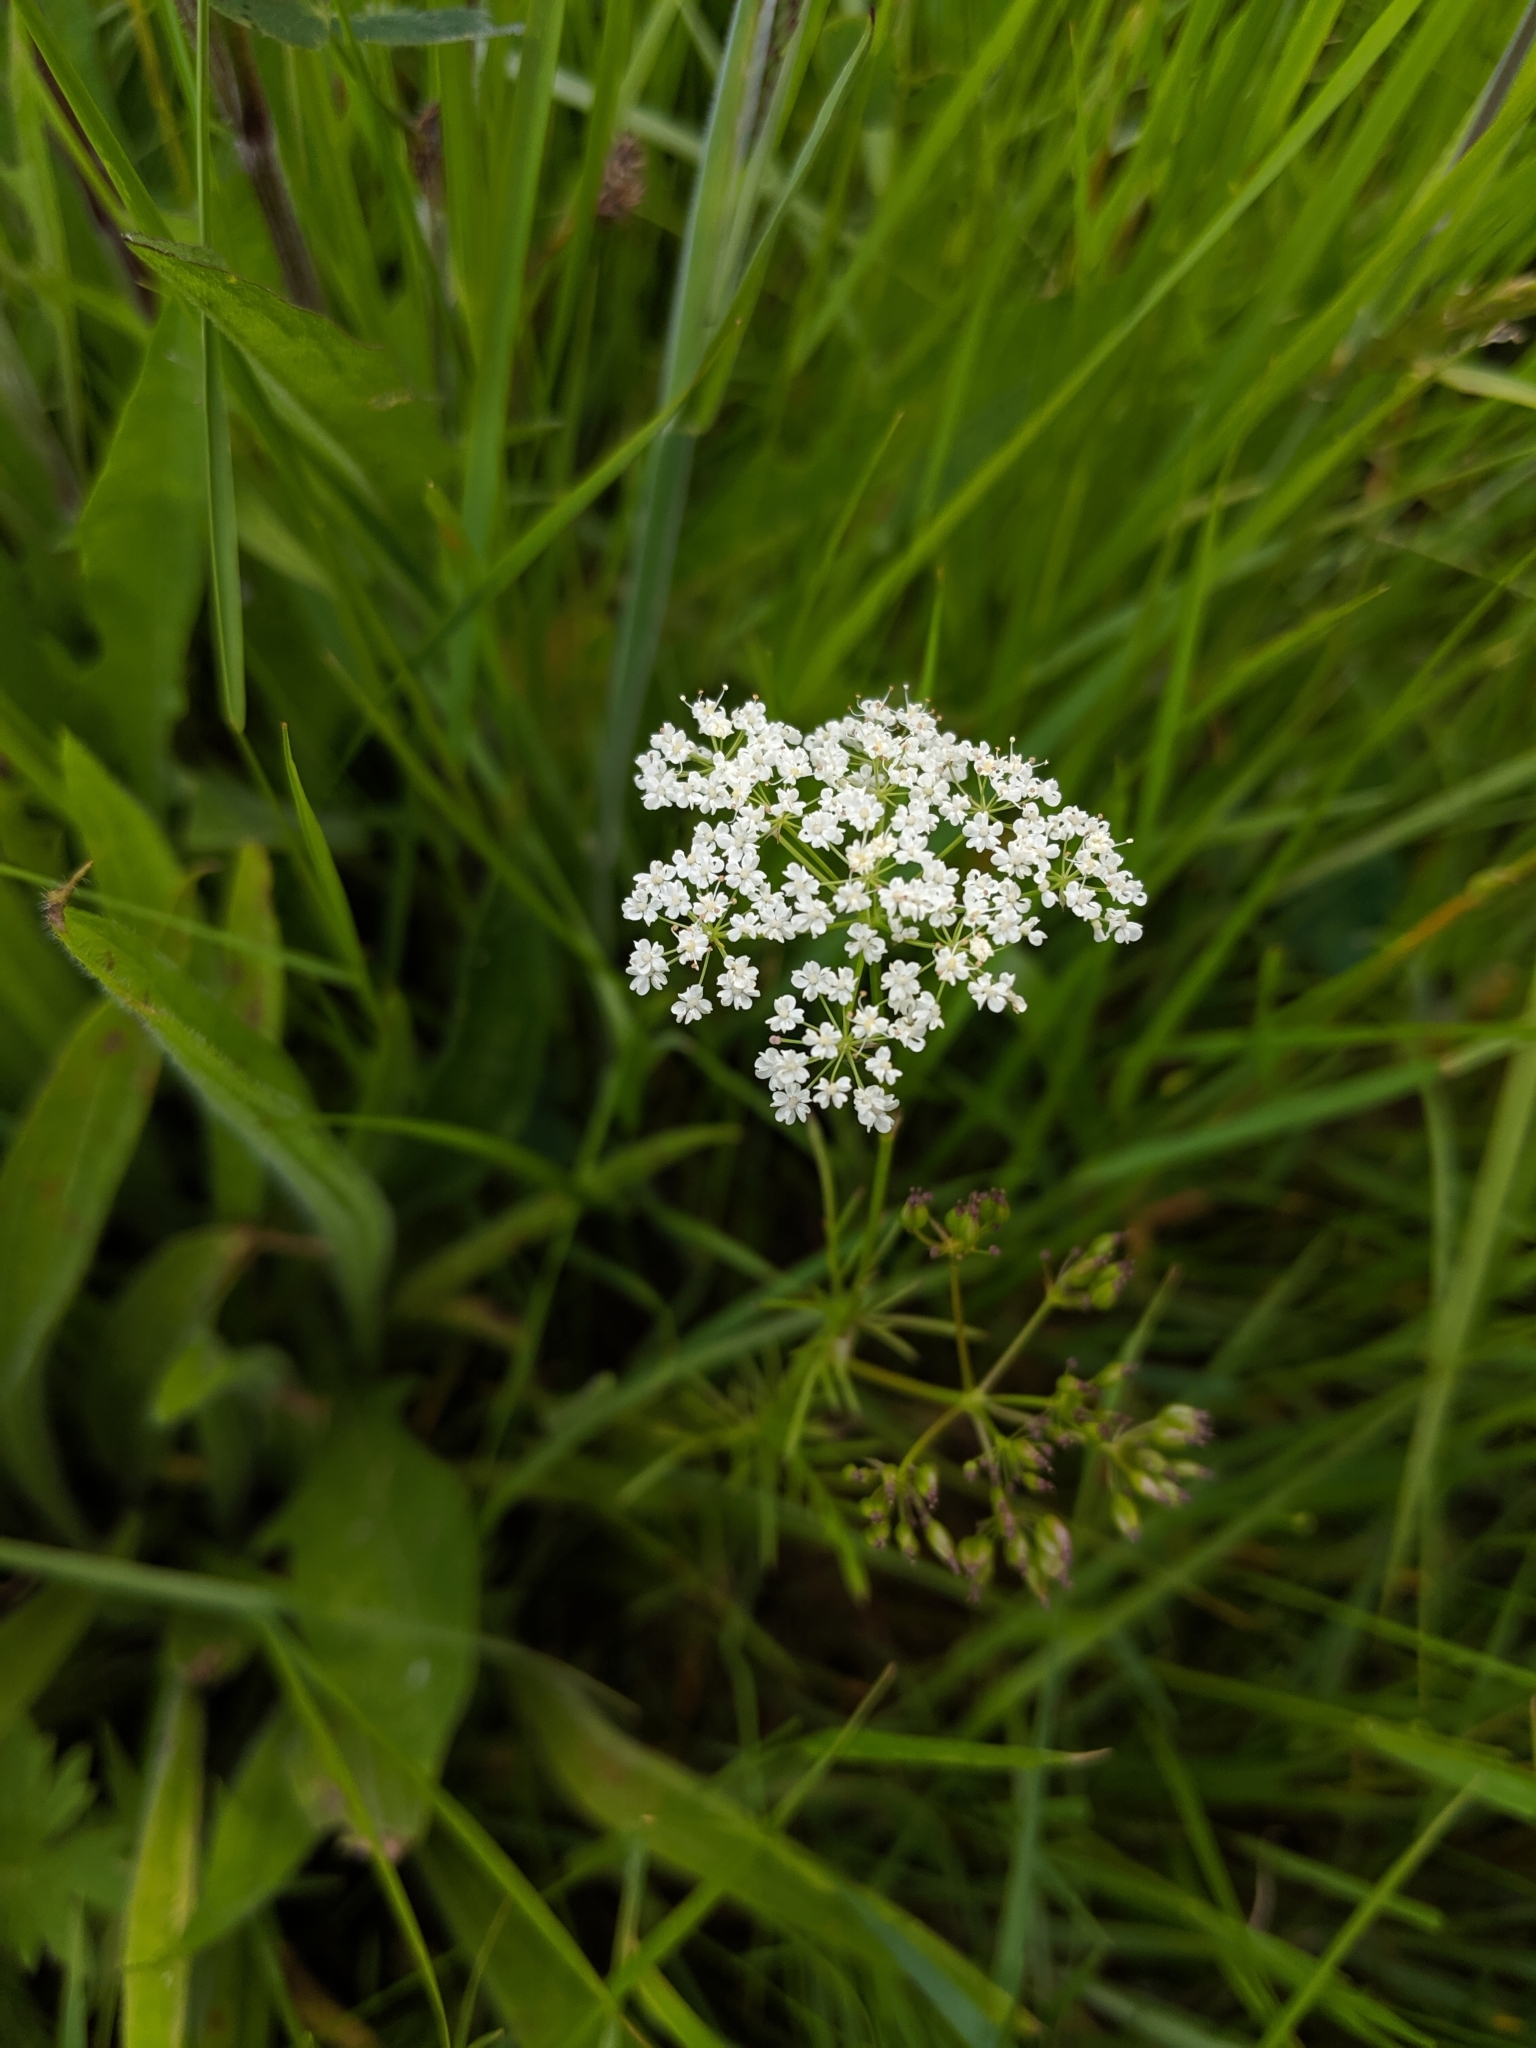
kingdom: Plantae
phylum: Tracheophyta
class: Magnoliopsida
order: Apiales
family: Apiaceae
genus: Conopodium
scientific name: Conopodium majus
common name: Pignut
